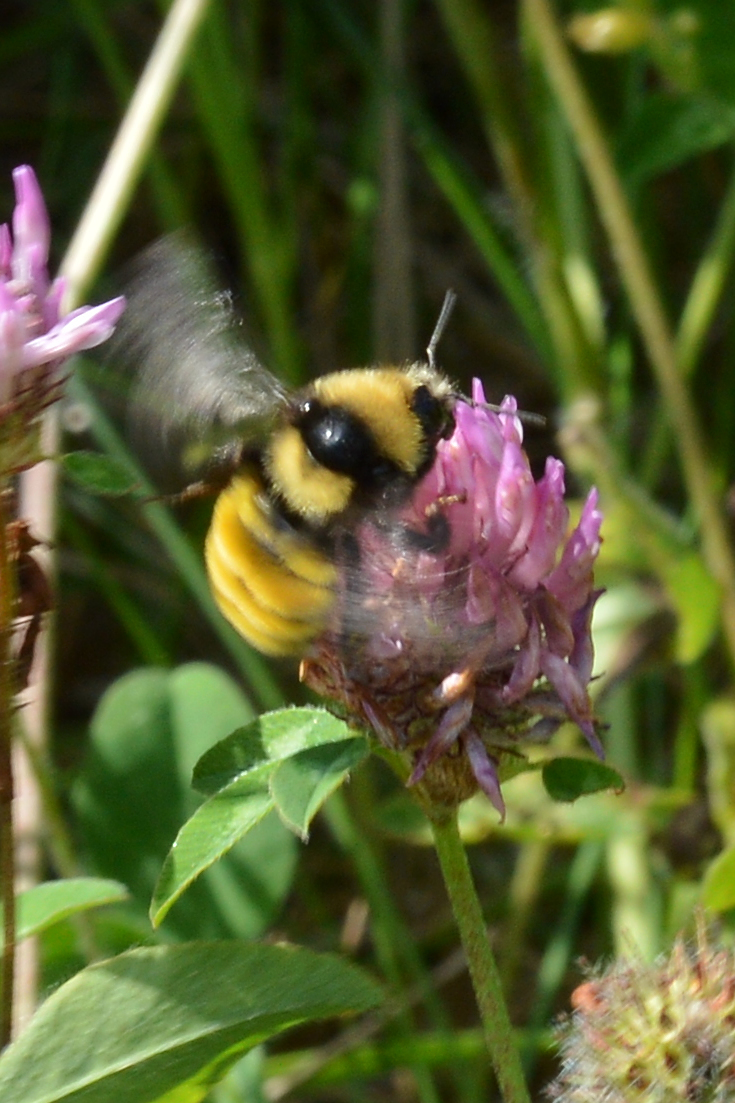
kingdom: Plantae
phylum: Tracheophyta
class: Magnoliopsida
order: Fabales
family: Fabaceae
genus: Trifolium
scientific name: Trifolium pratense
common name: Red clover
